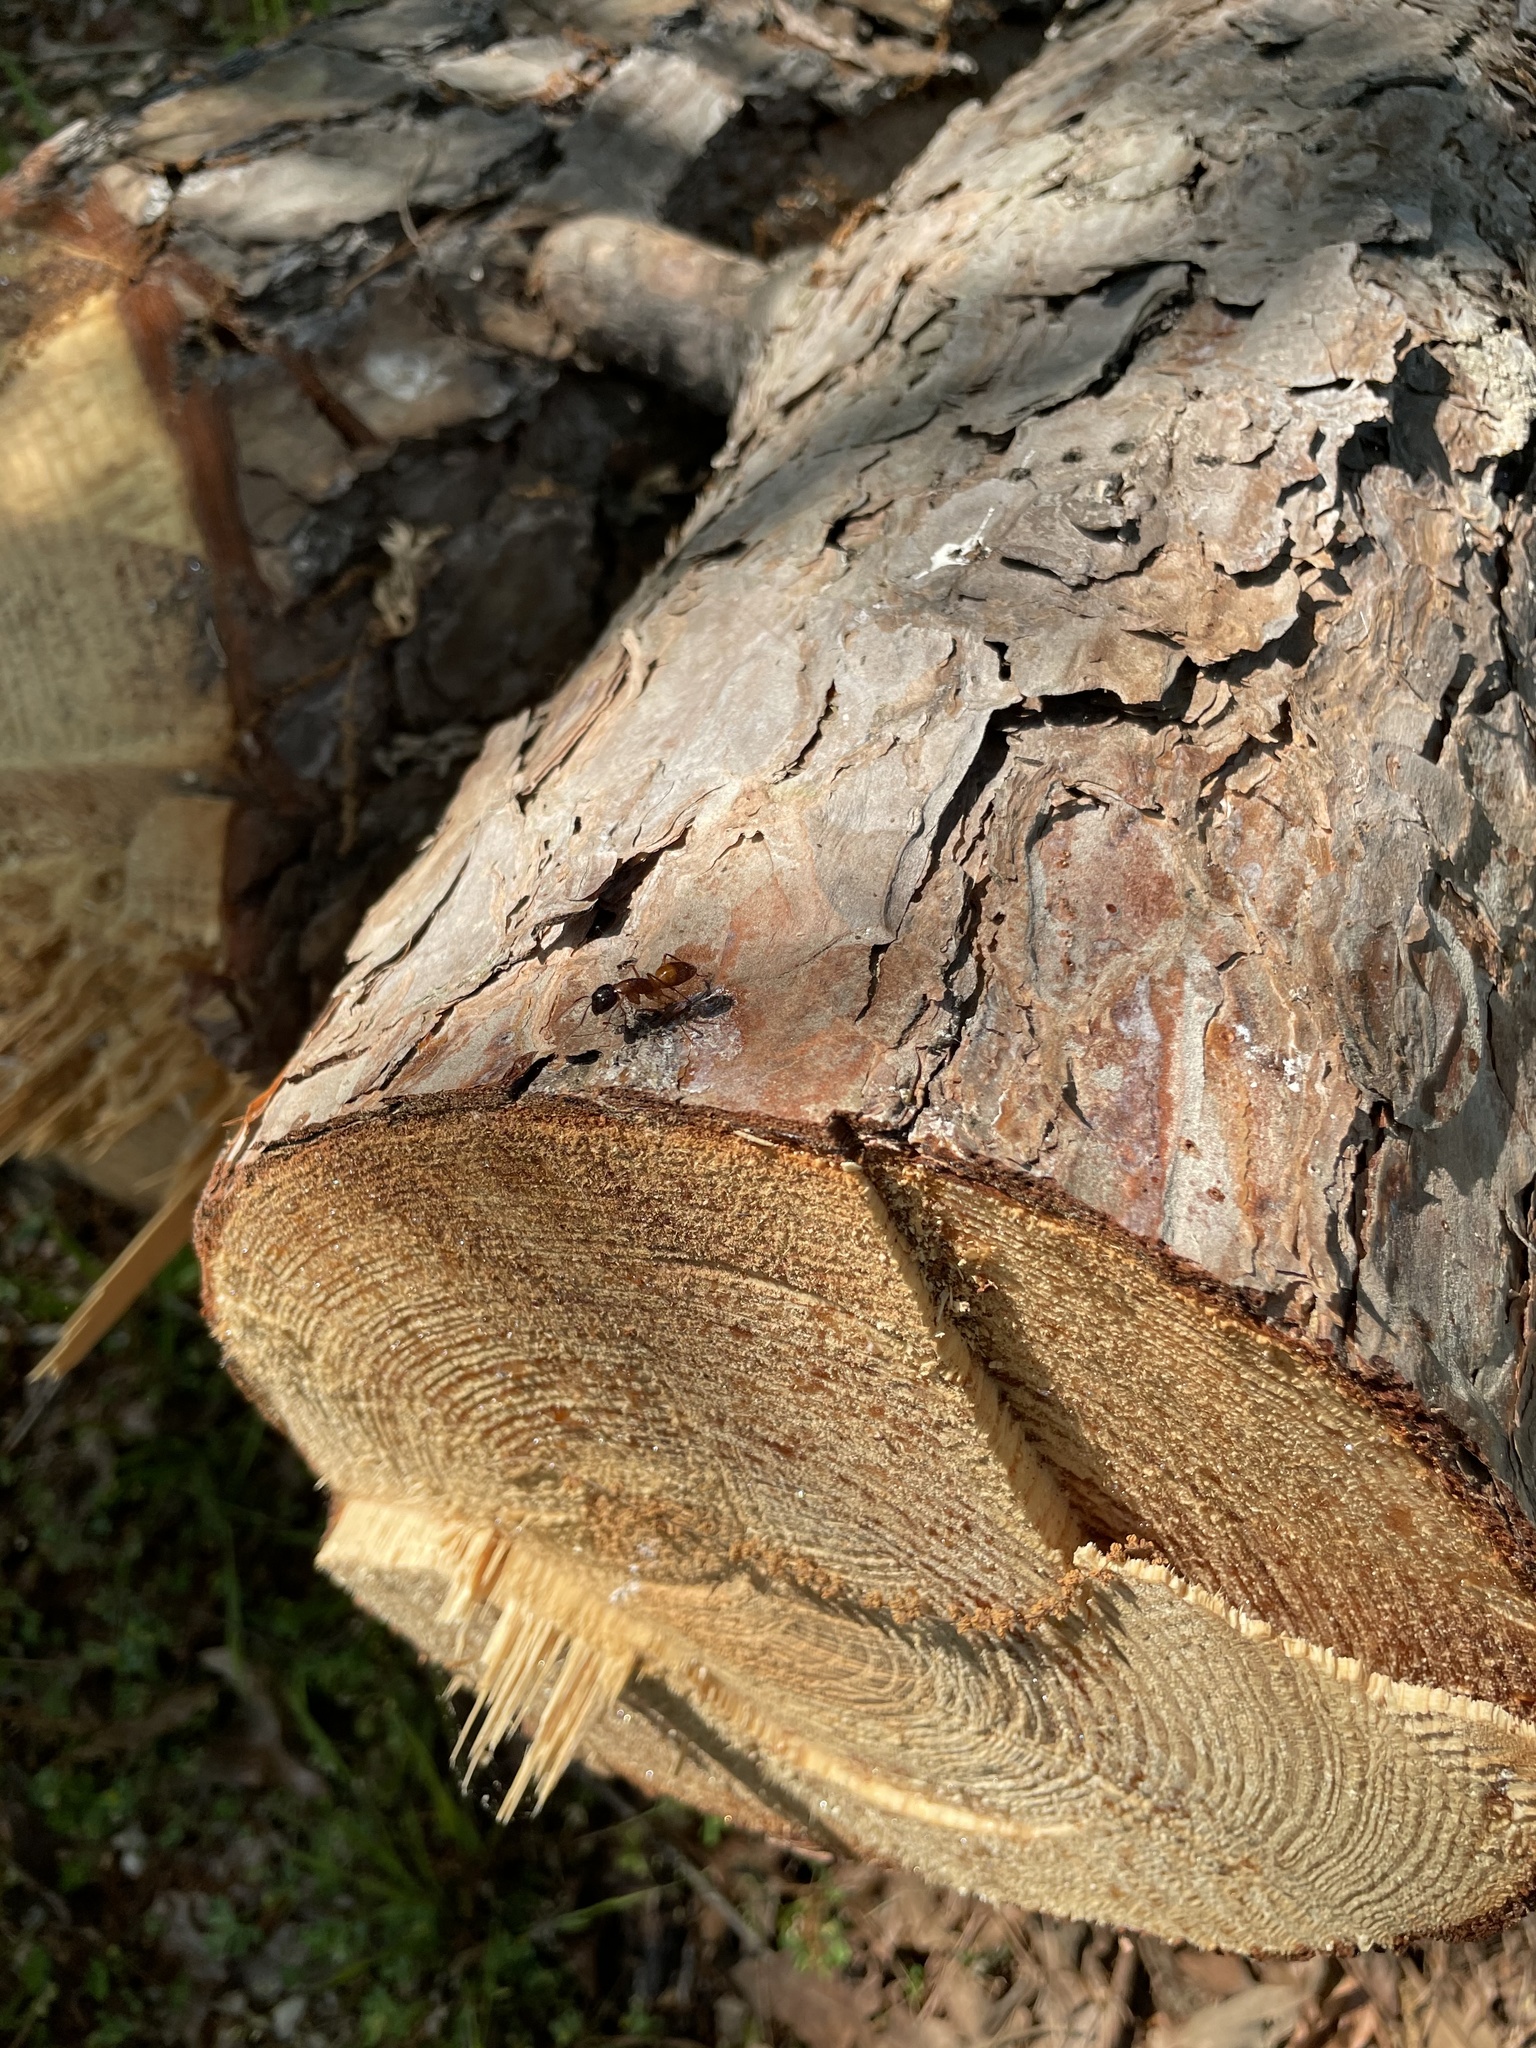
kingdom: Animalia
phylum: Arthropoda
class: Insecta
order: Hymenoptera
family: Formicidae
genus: Camponotus
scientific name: Camponotus americanus
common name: American carpenter ant
